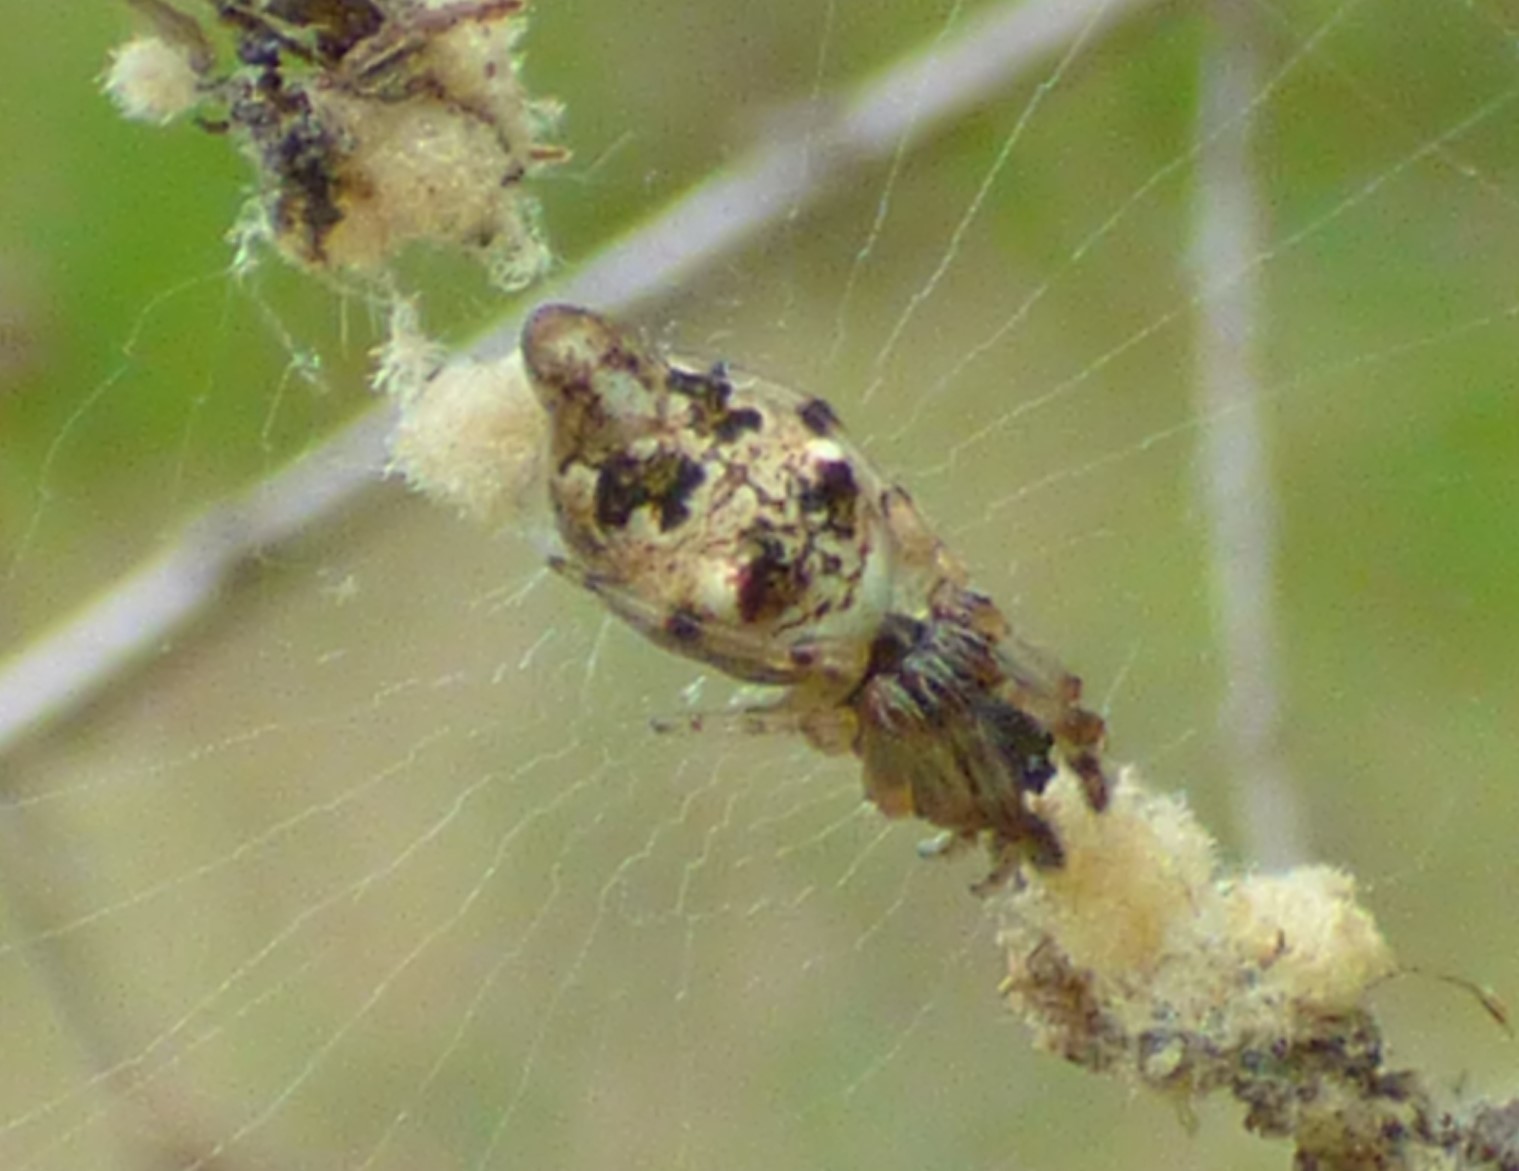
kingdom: Animalia
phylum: Arthropoda
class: Arachnida
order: Araneae
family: Araneidae
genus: Cyclosa
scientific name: Cyclosa turbinata
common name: Orb weavers
